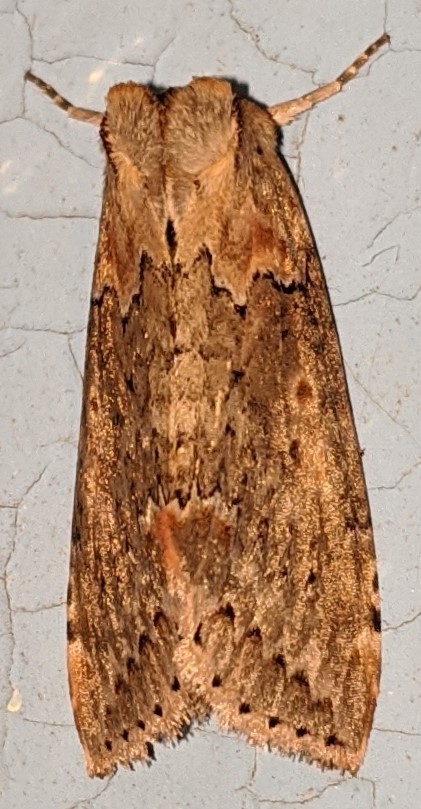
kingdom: Animalia
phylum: Arthropoda
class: Insecta
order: Lepidoptera
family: Drepanidae
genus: Pseudothyatira
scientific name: Pseudothyatira cymatophoroides
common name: Tufted thyatirid moth
